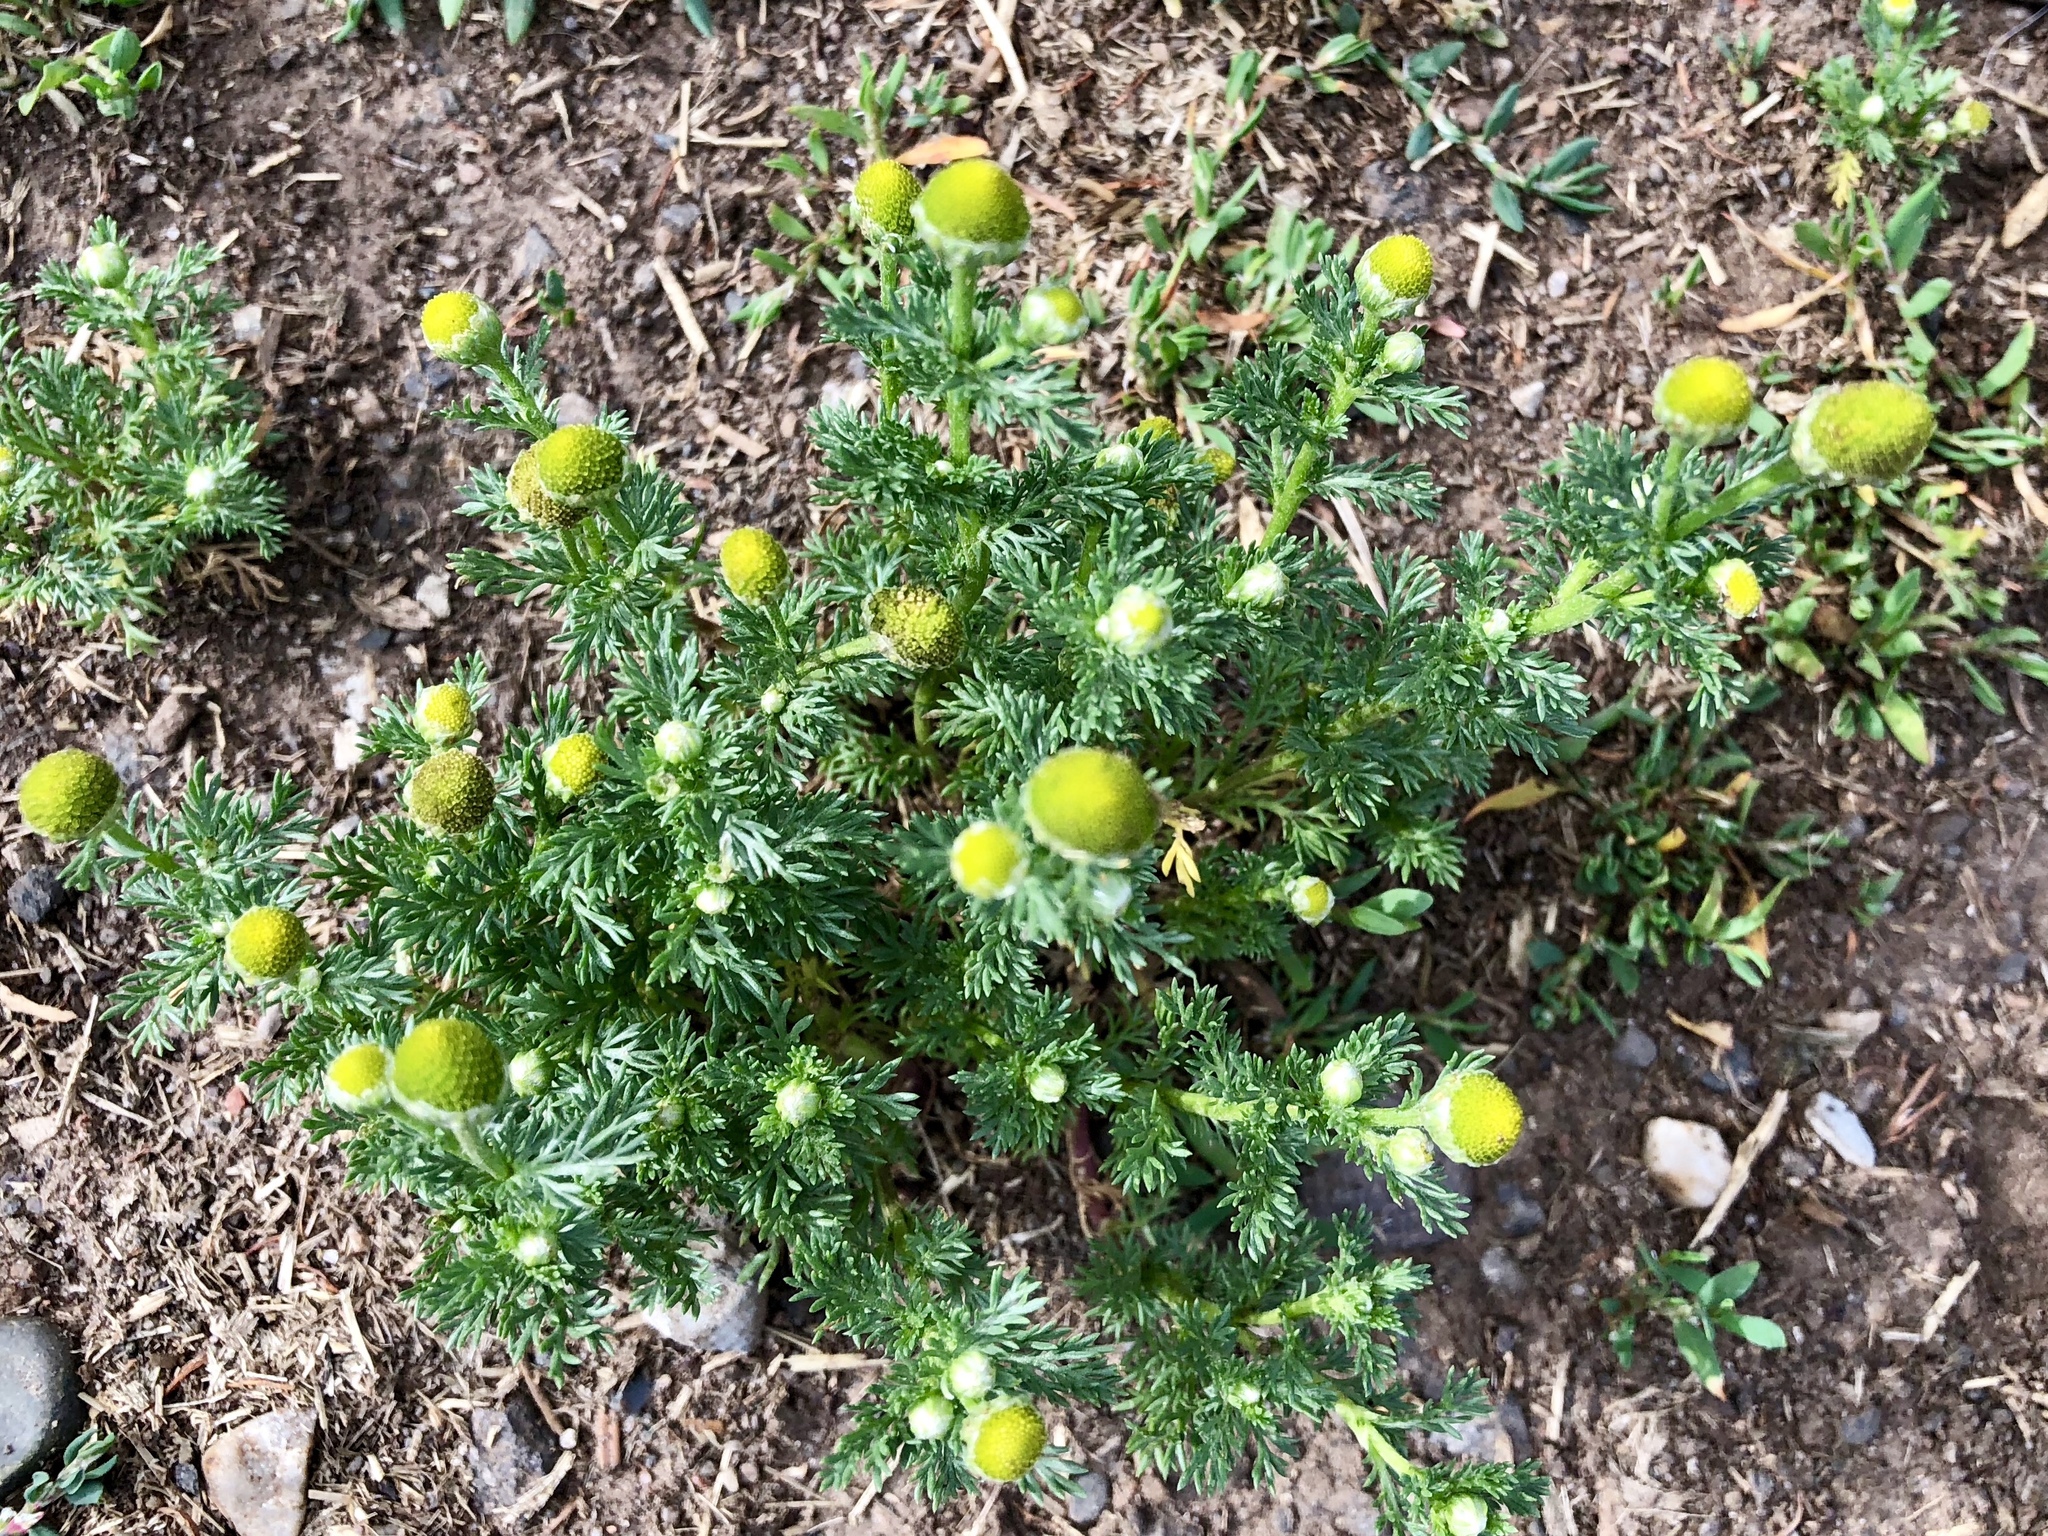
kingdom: Plantae
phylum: Tracheophyta
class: Magnoliopsida
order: Asterales
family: Asteraceae
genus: Matricaria
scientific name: Matricaria discoidea
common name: Disc mayweed
